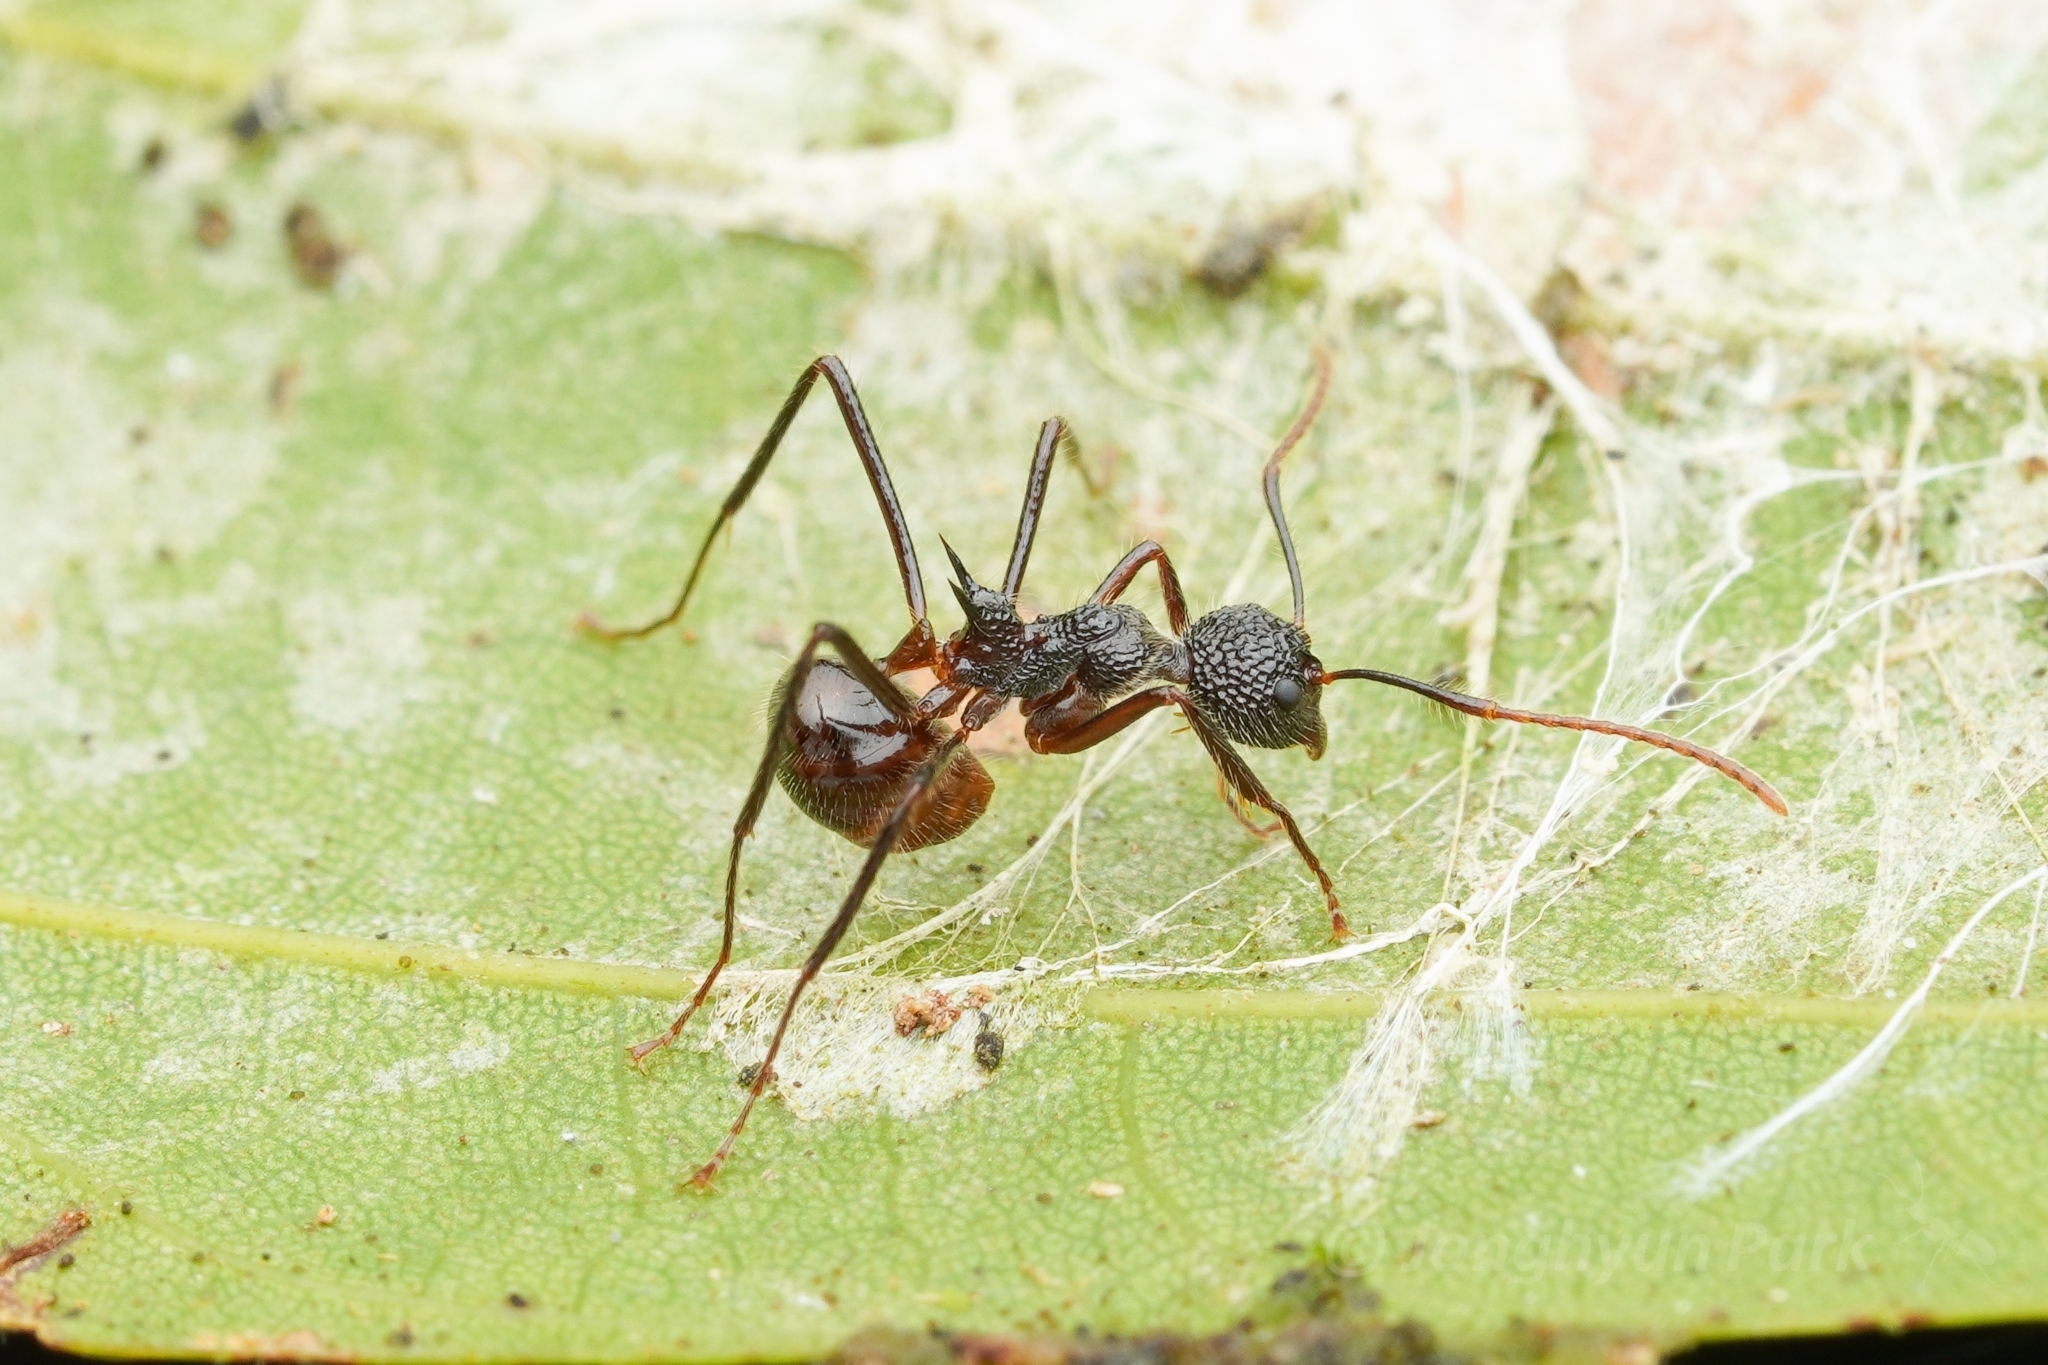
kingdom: Animalia
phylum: Arthropoda
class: Insecta
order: Hymenoptera
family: Formicidae
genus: Dolichoderus
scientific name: Dolichoderus indrapurensis
